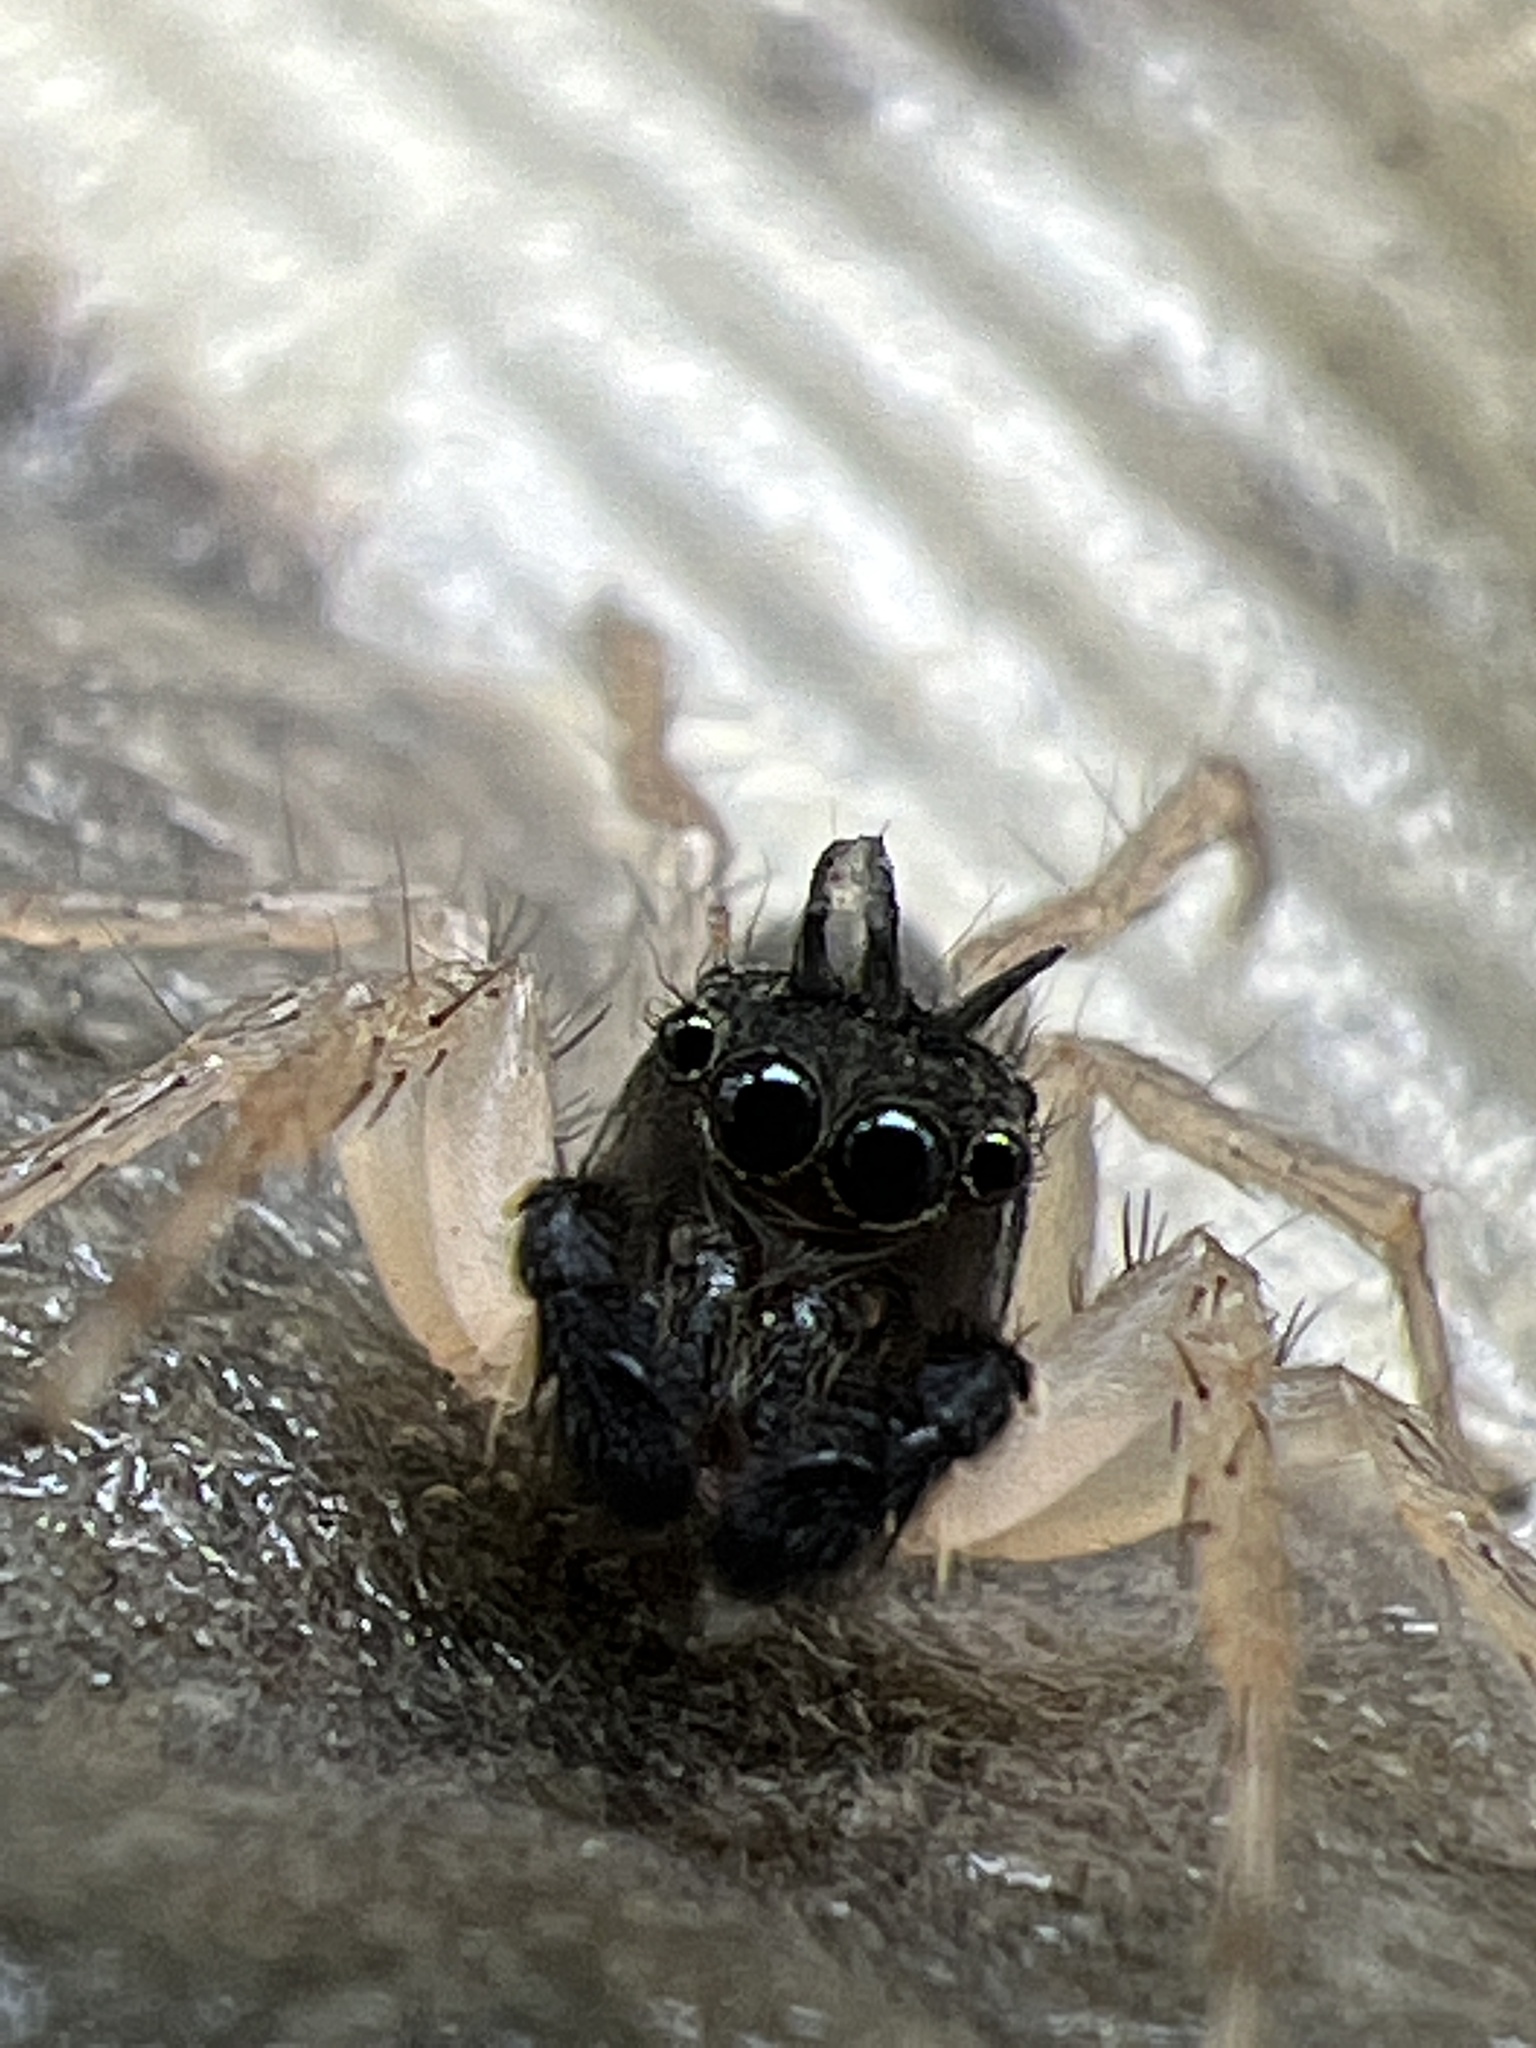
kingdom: Animalia
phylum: Arthropoda
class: Arachnida
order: Araneae
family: Salticidae
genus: Maevia
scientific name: Maevia inclemens
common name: Dimorphic jumper
